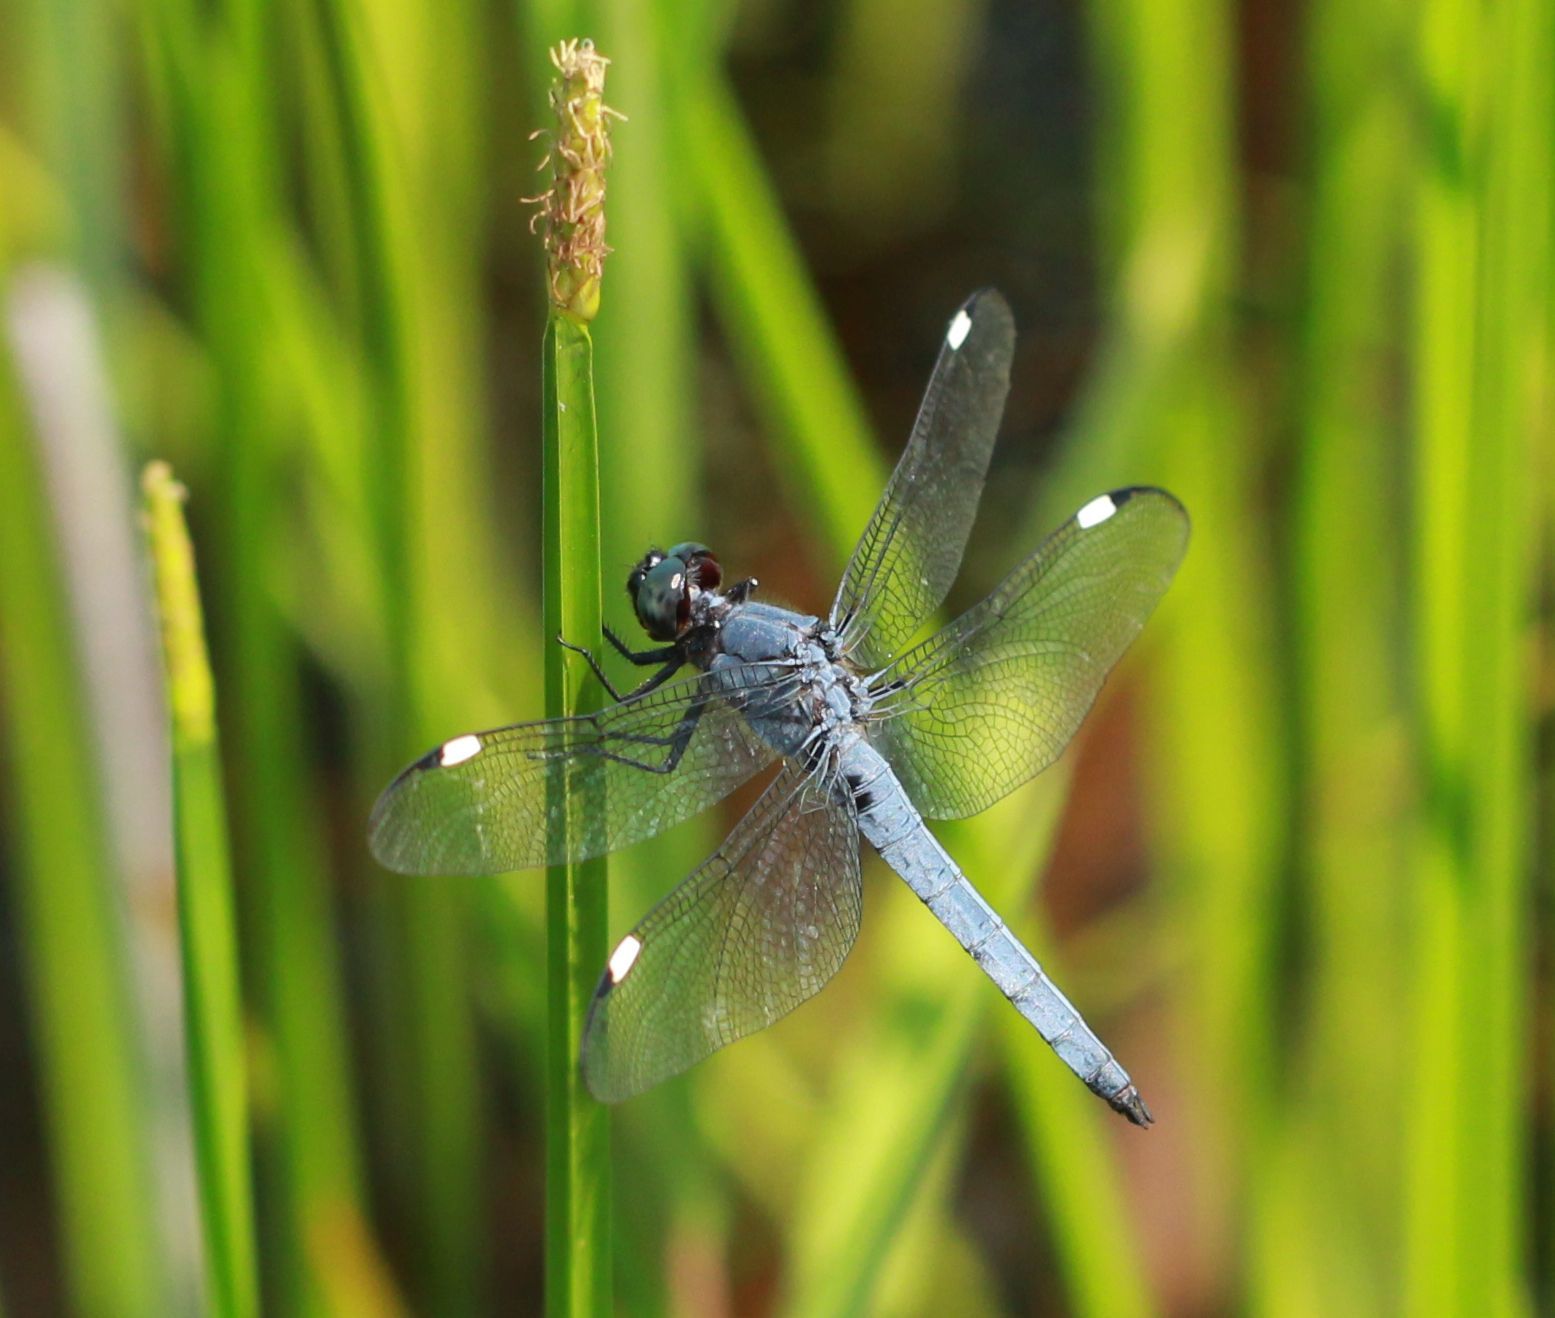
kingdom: Animalia
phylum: Arthropoda
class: Insecta
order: Odonata
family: Libellulidae
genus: Libellula
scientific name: Libellula cyanea
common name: Spangled skimmer
